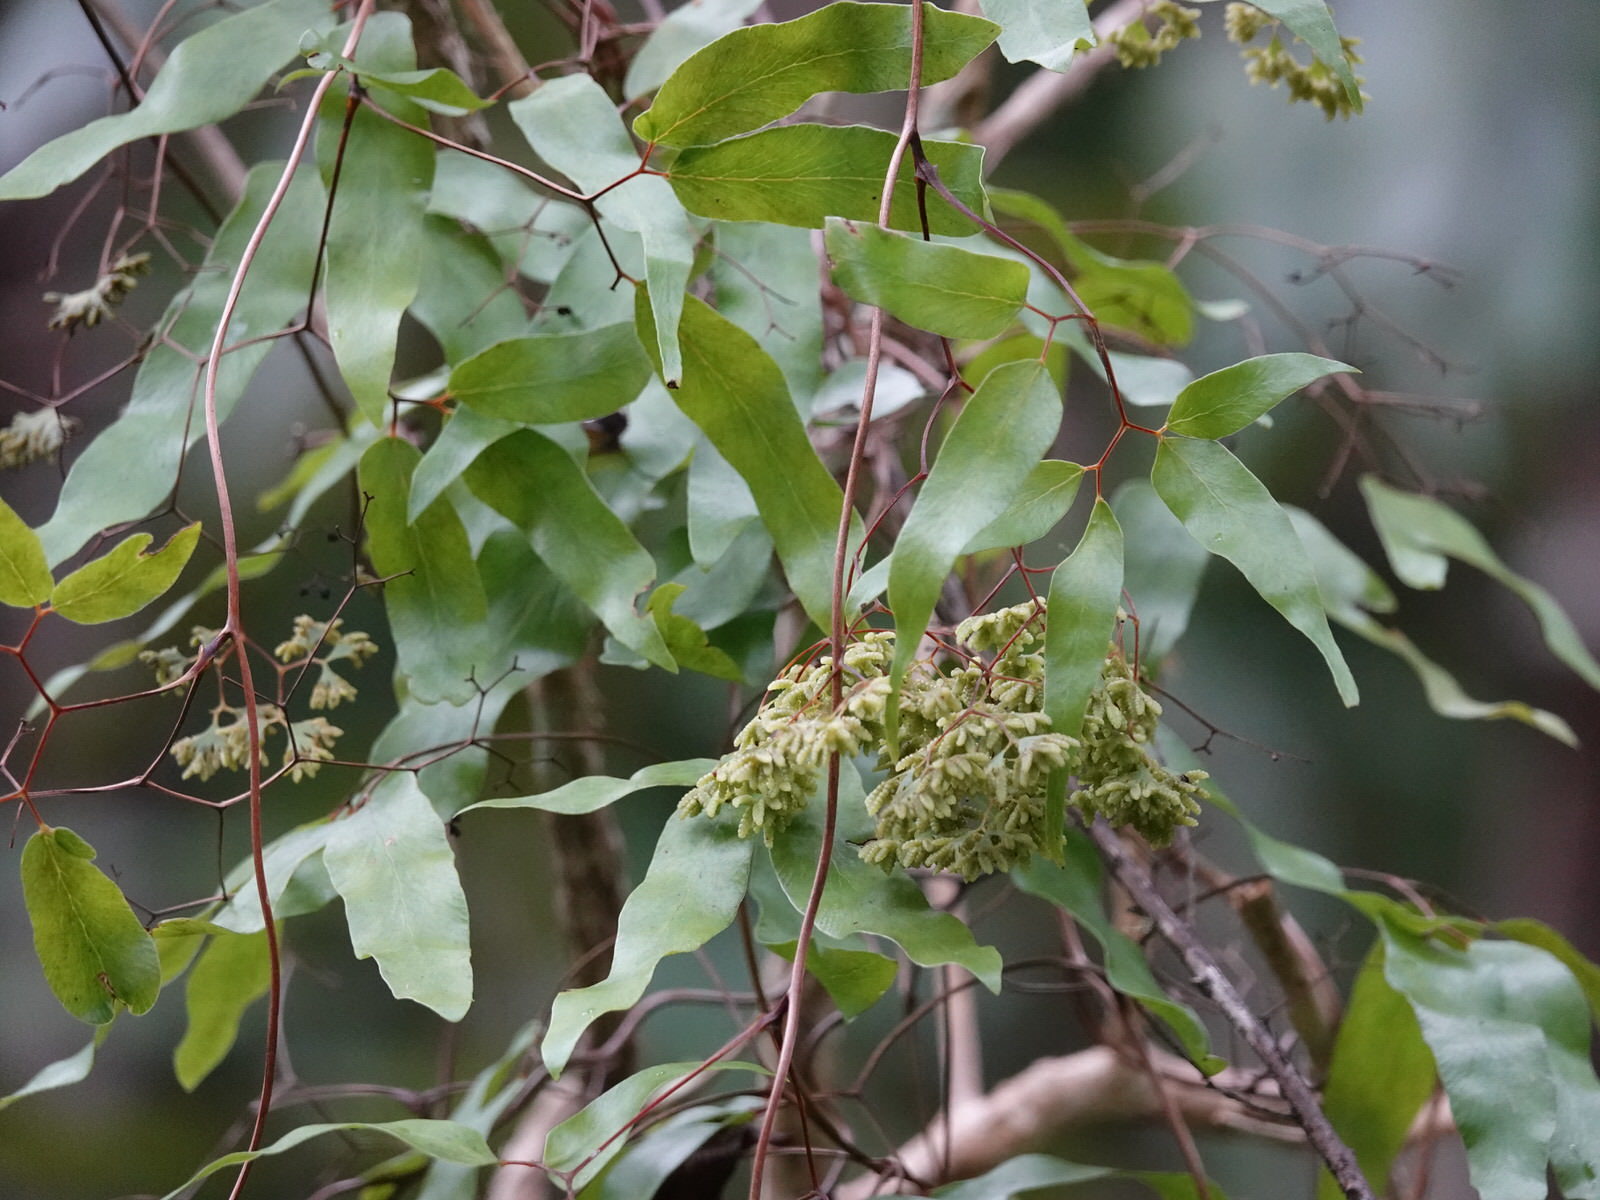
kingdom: Plantae
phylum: Tracheophyta
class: Polypodiopsida
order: Schizaeales
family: Lygodiaceae
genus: Lygodium
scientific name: Lygodium articulatum
